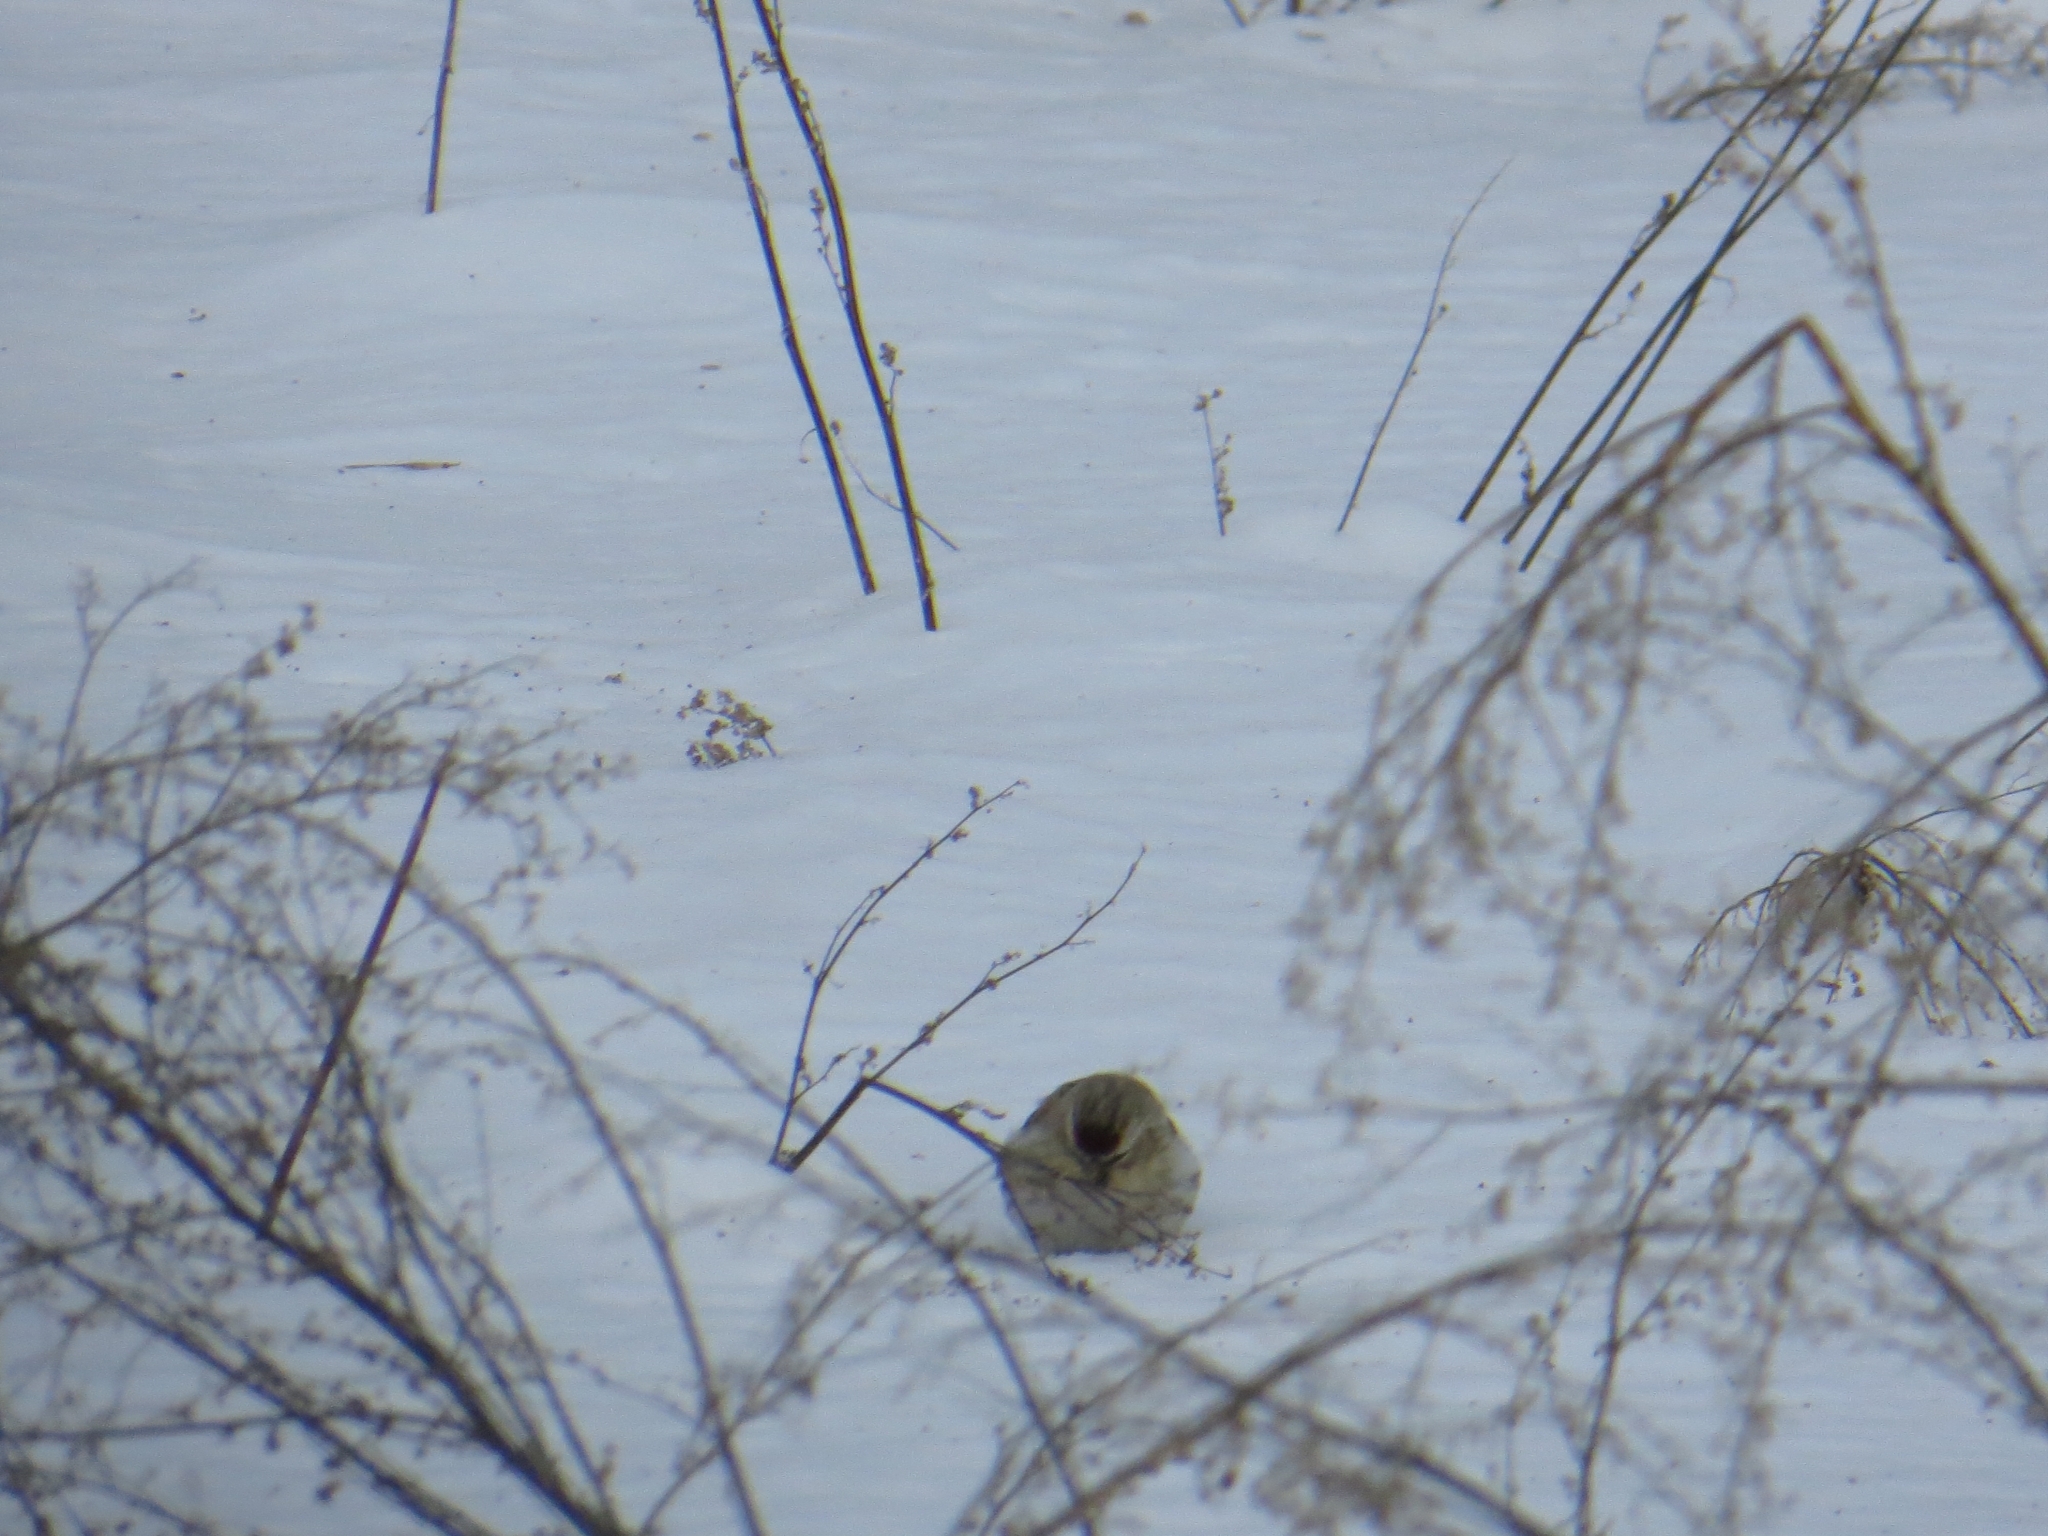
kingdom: Animalia
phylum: Chordata
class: Aves
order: Passeriformes
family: Fringillidae
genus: Acanthis
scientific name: Acanthis flammea
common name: Common redpoll
